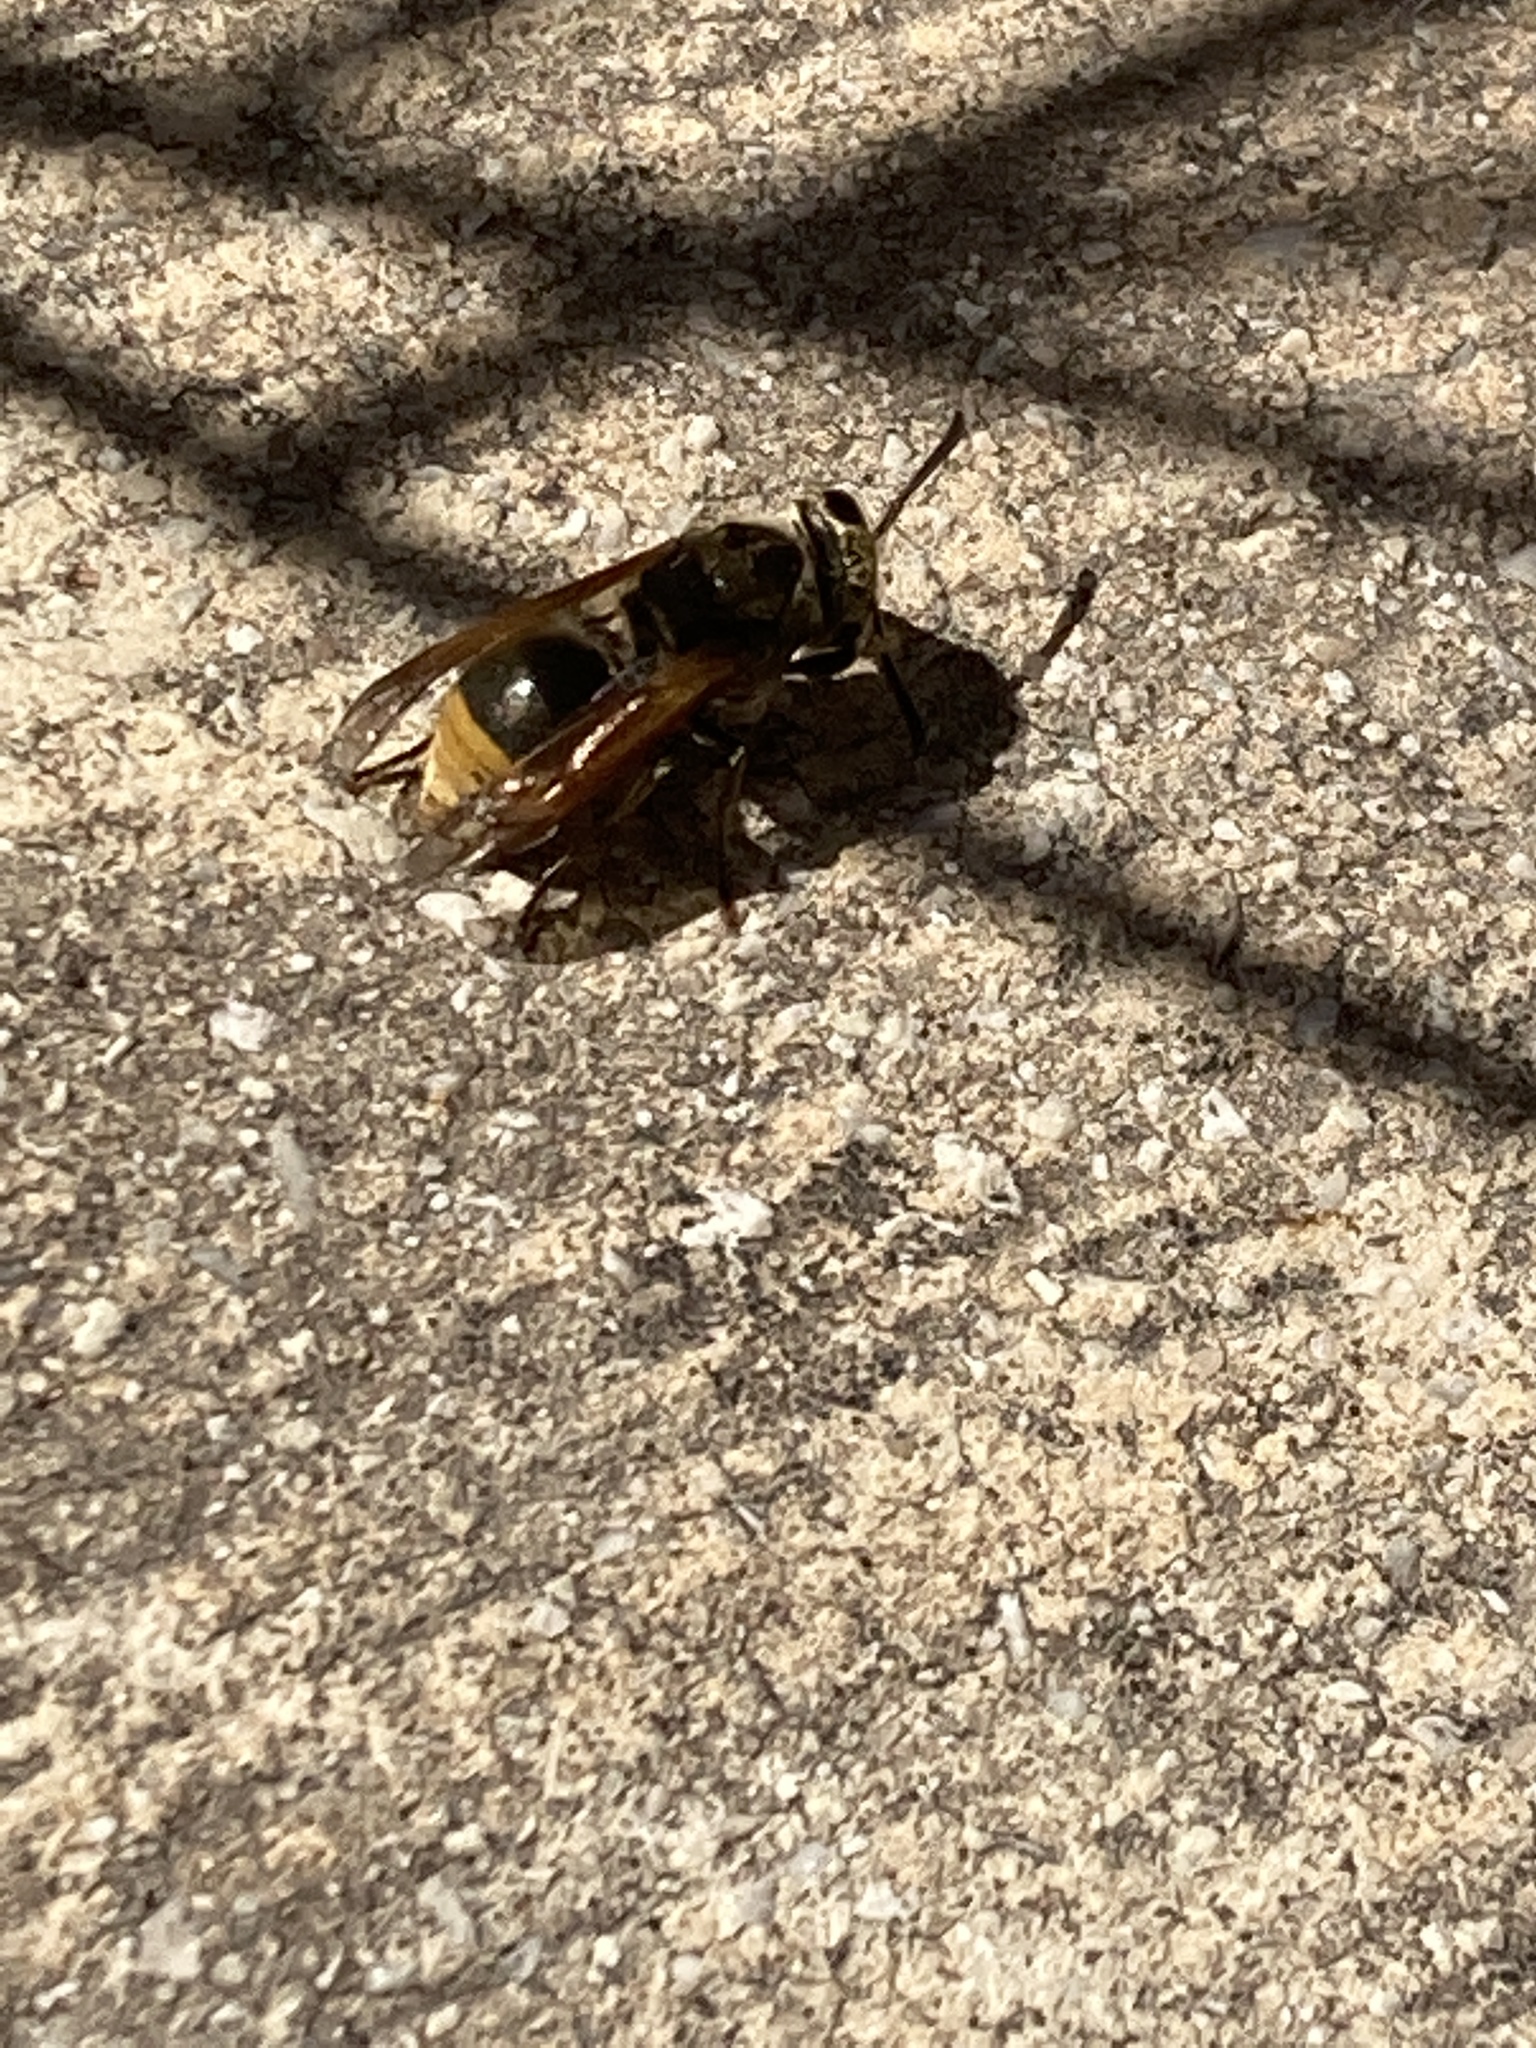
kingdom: Animalia
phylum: Arthropoda
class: Insecta
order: Hymenoptera
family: Vespidae
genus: Brachygastra
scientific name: Brachygastra mellifica
